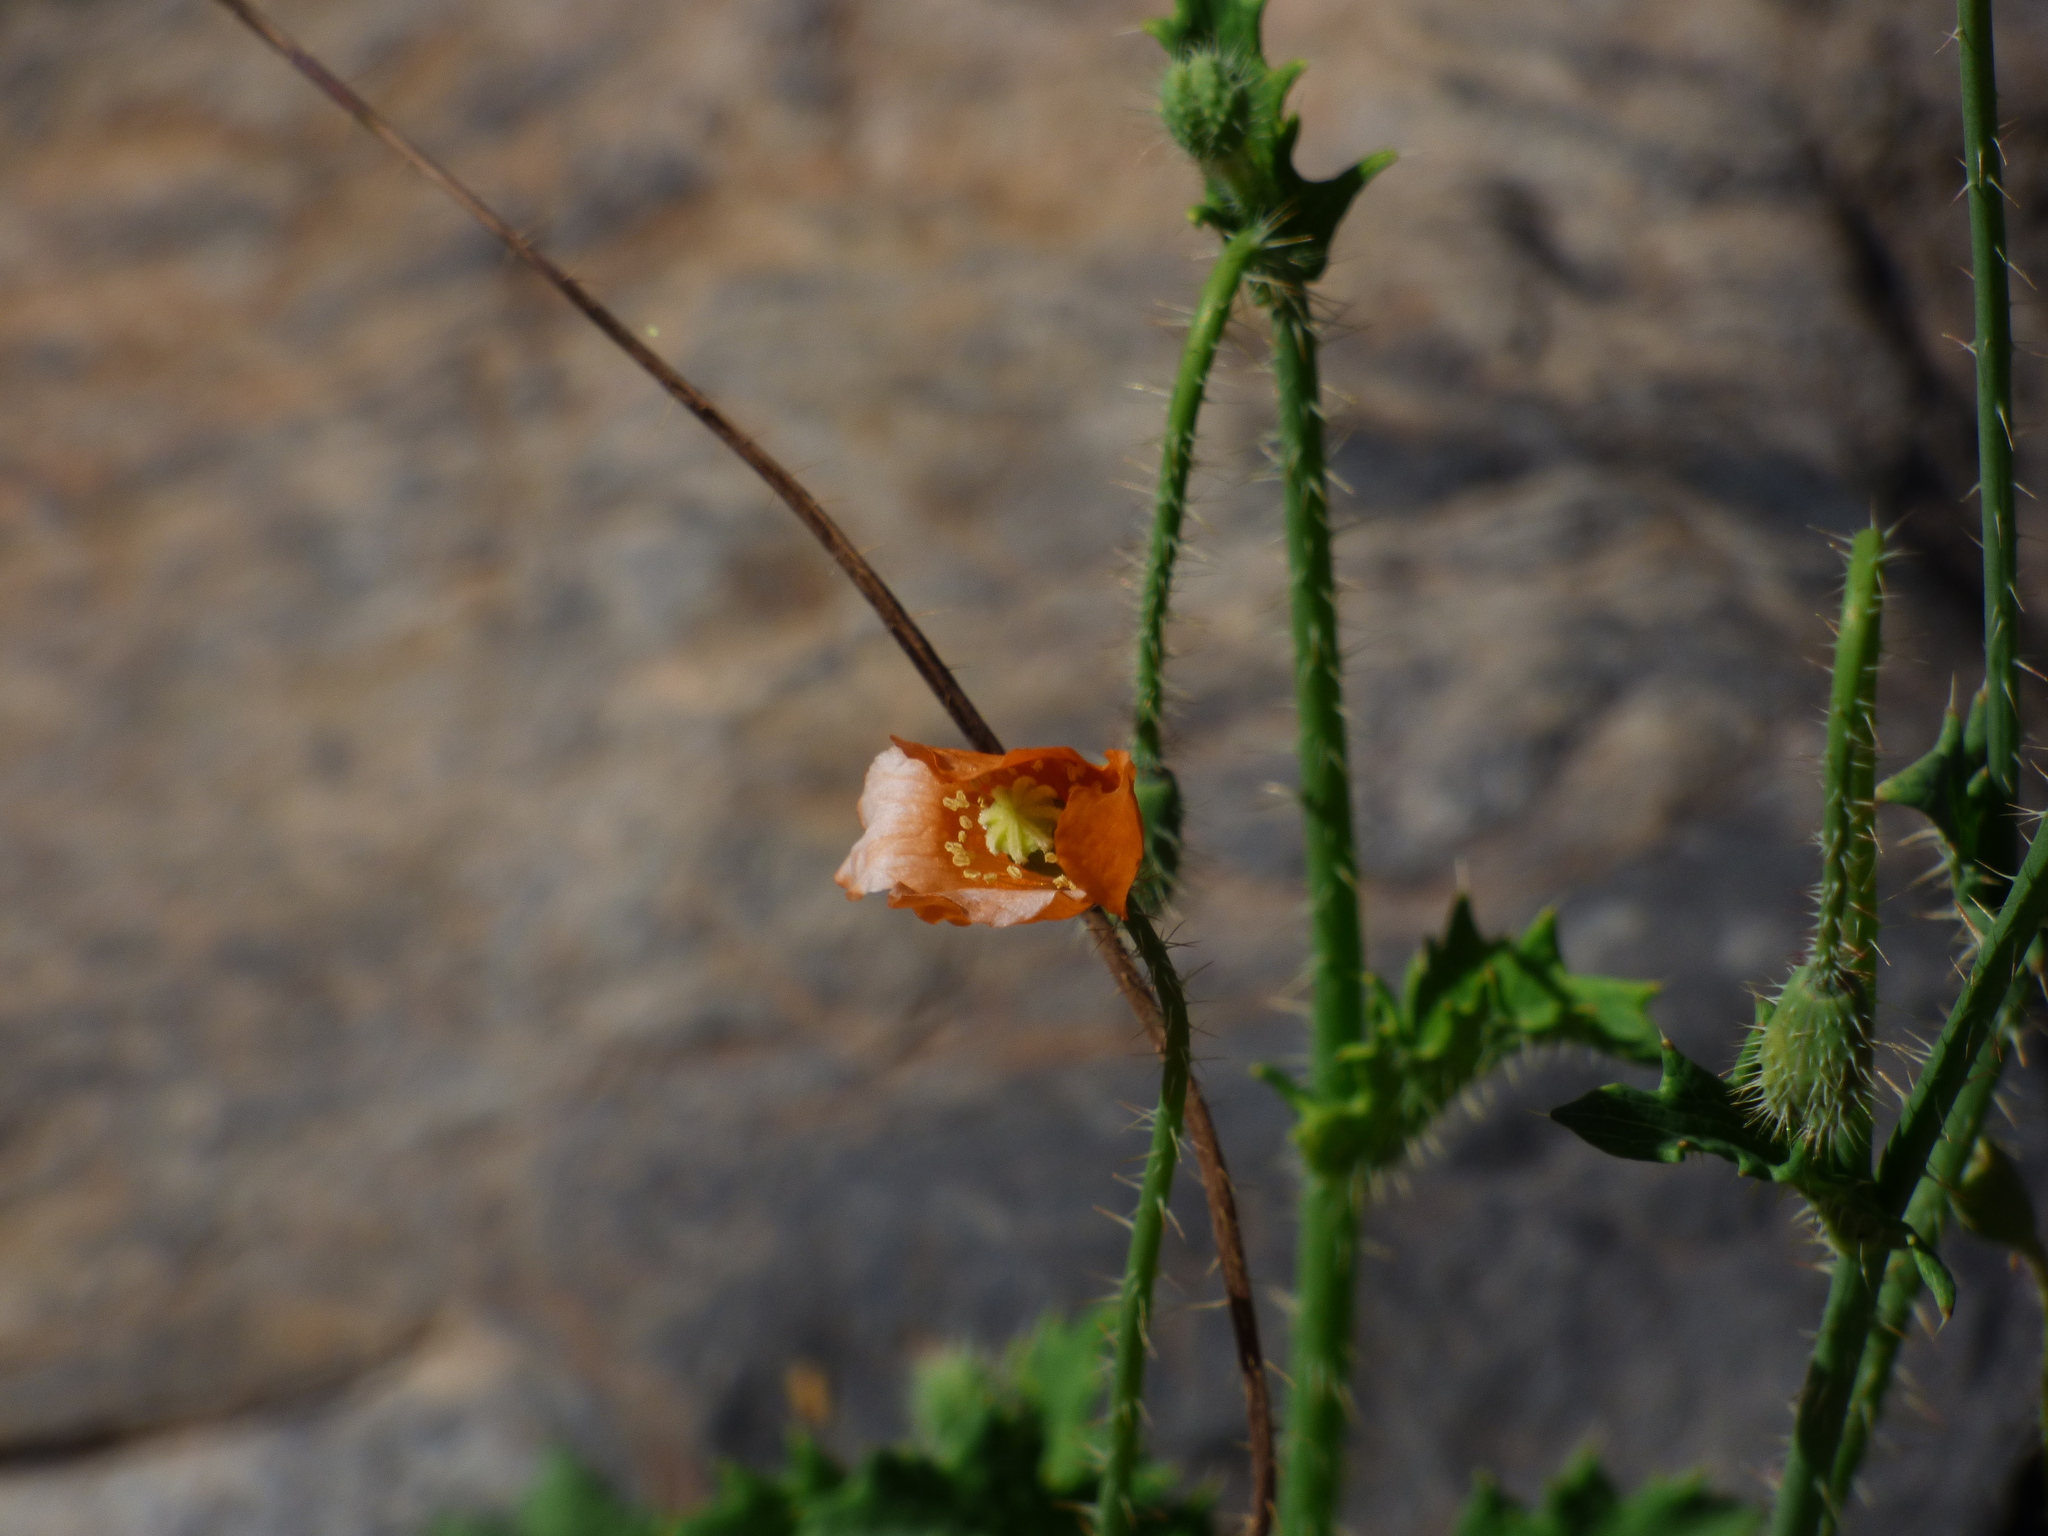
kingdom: Plantae
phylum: Tracheophyta
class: Magnoliopsida
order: Ranunculales
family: Papaveraceae
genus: Papaver
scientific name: Papaver aculeatum
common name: Bristle poppy
